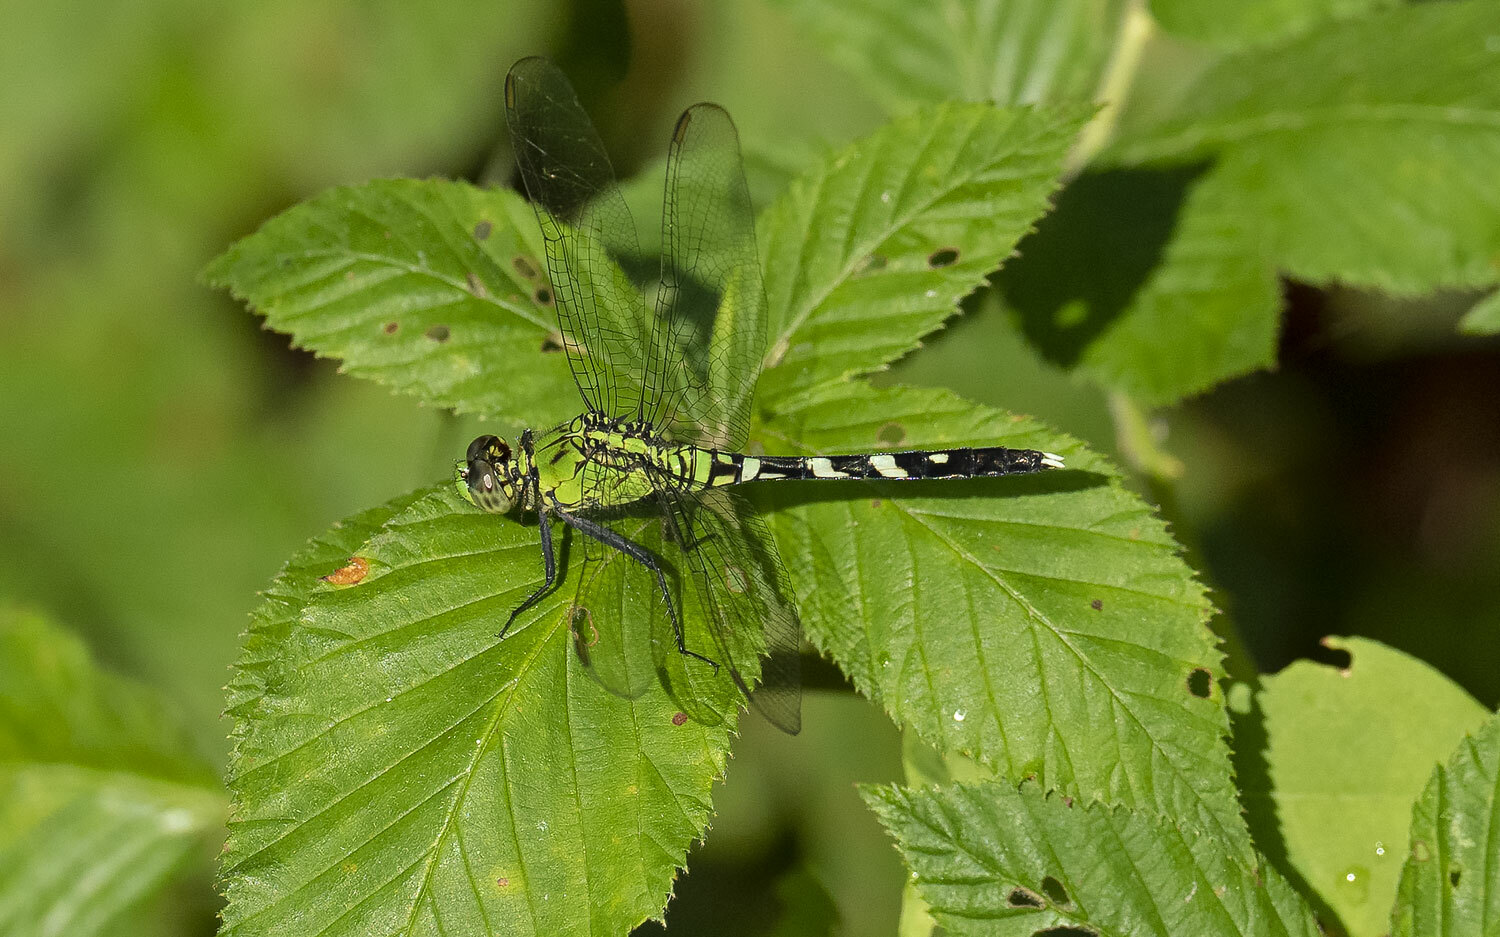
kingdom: Animalia
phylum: Arthropoda
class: Insecta
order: Odonata
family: Libellulidae
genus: Erythemis
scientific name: Erythemis simplicicollis
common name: Eastern pondhawk
